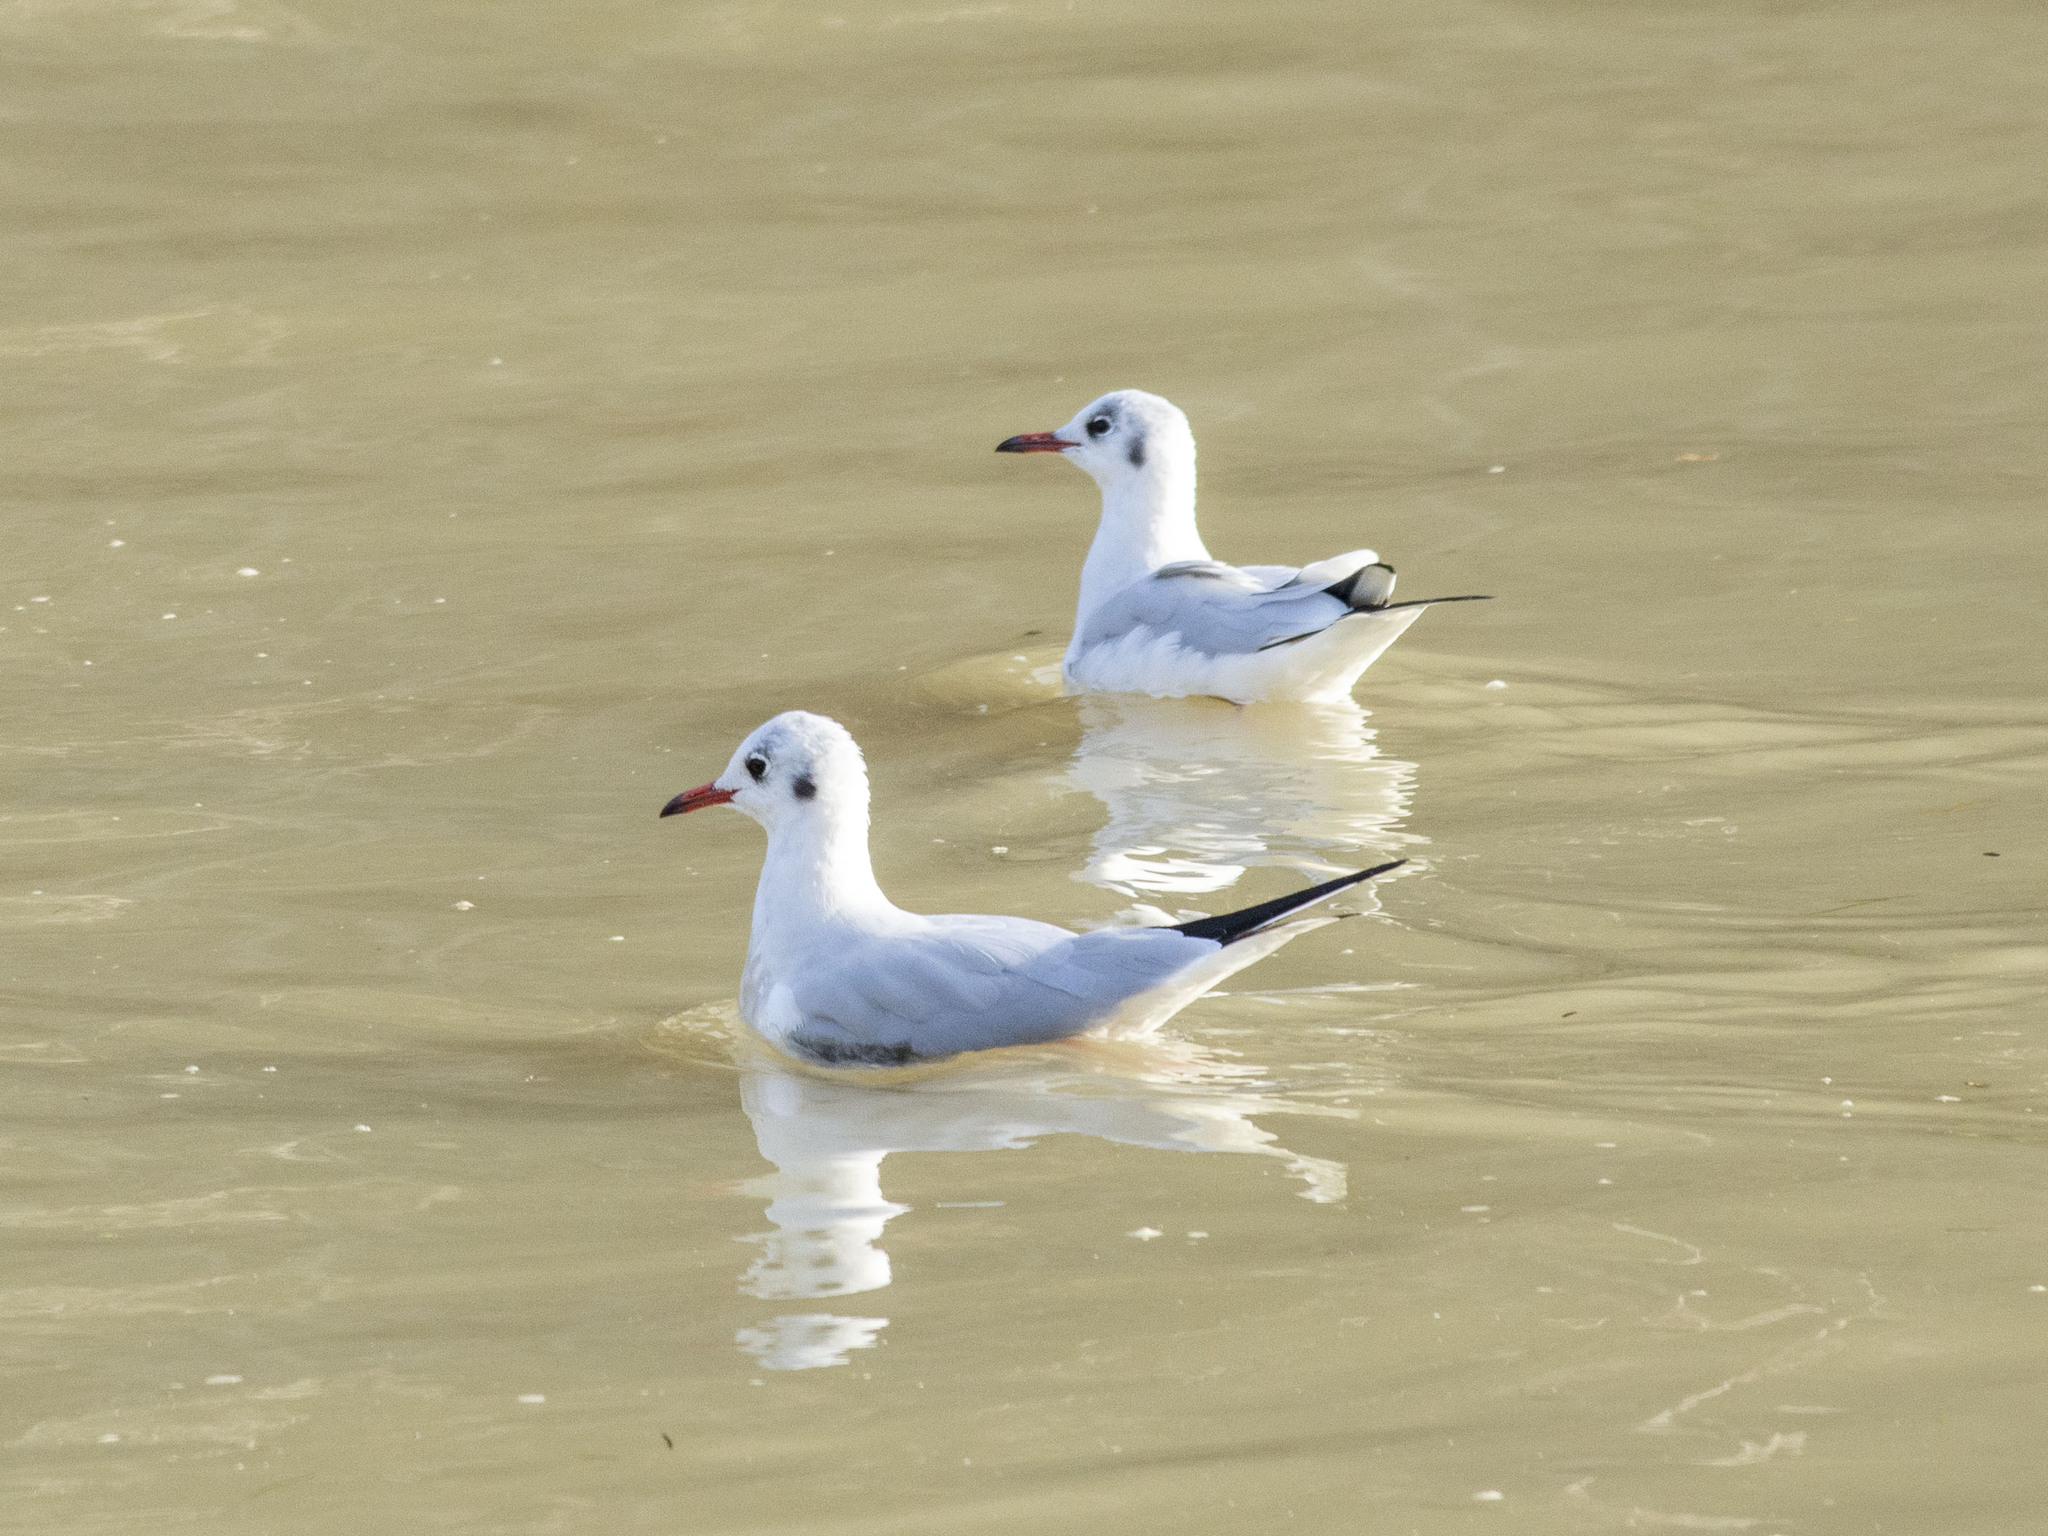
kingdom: Animalia
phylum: Chordata
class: Aves
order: Charadriiformes
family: Laridae
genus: Chroicocephalus
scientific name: Chroicocephalus ridibundus
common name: Black-headed gull
